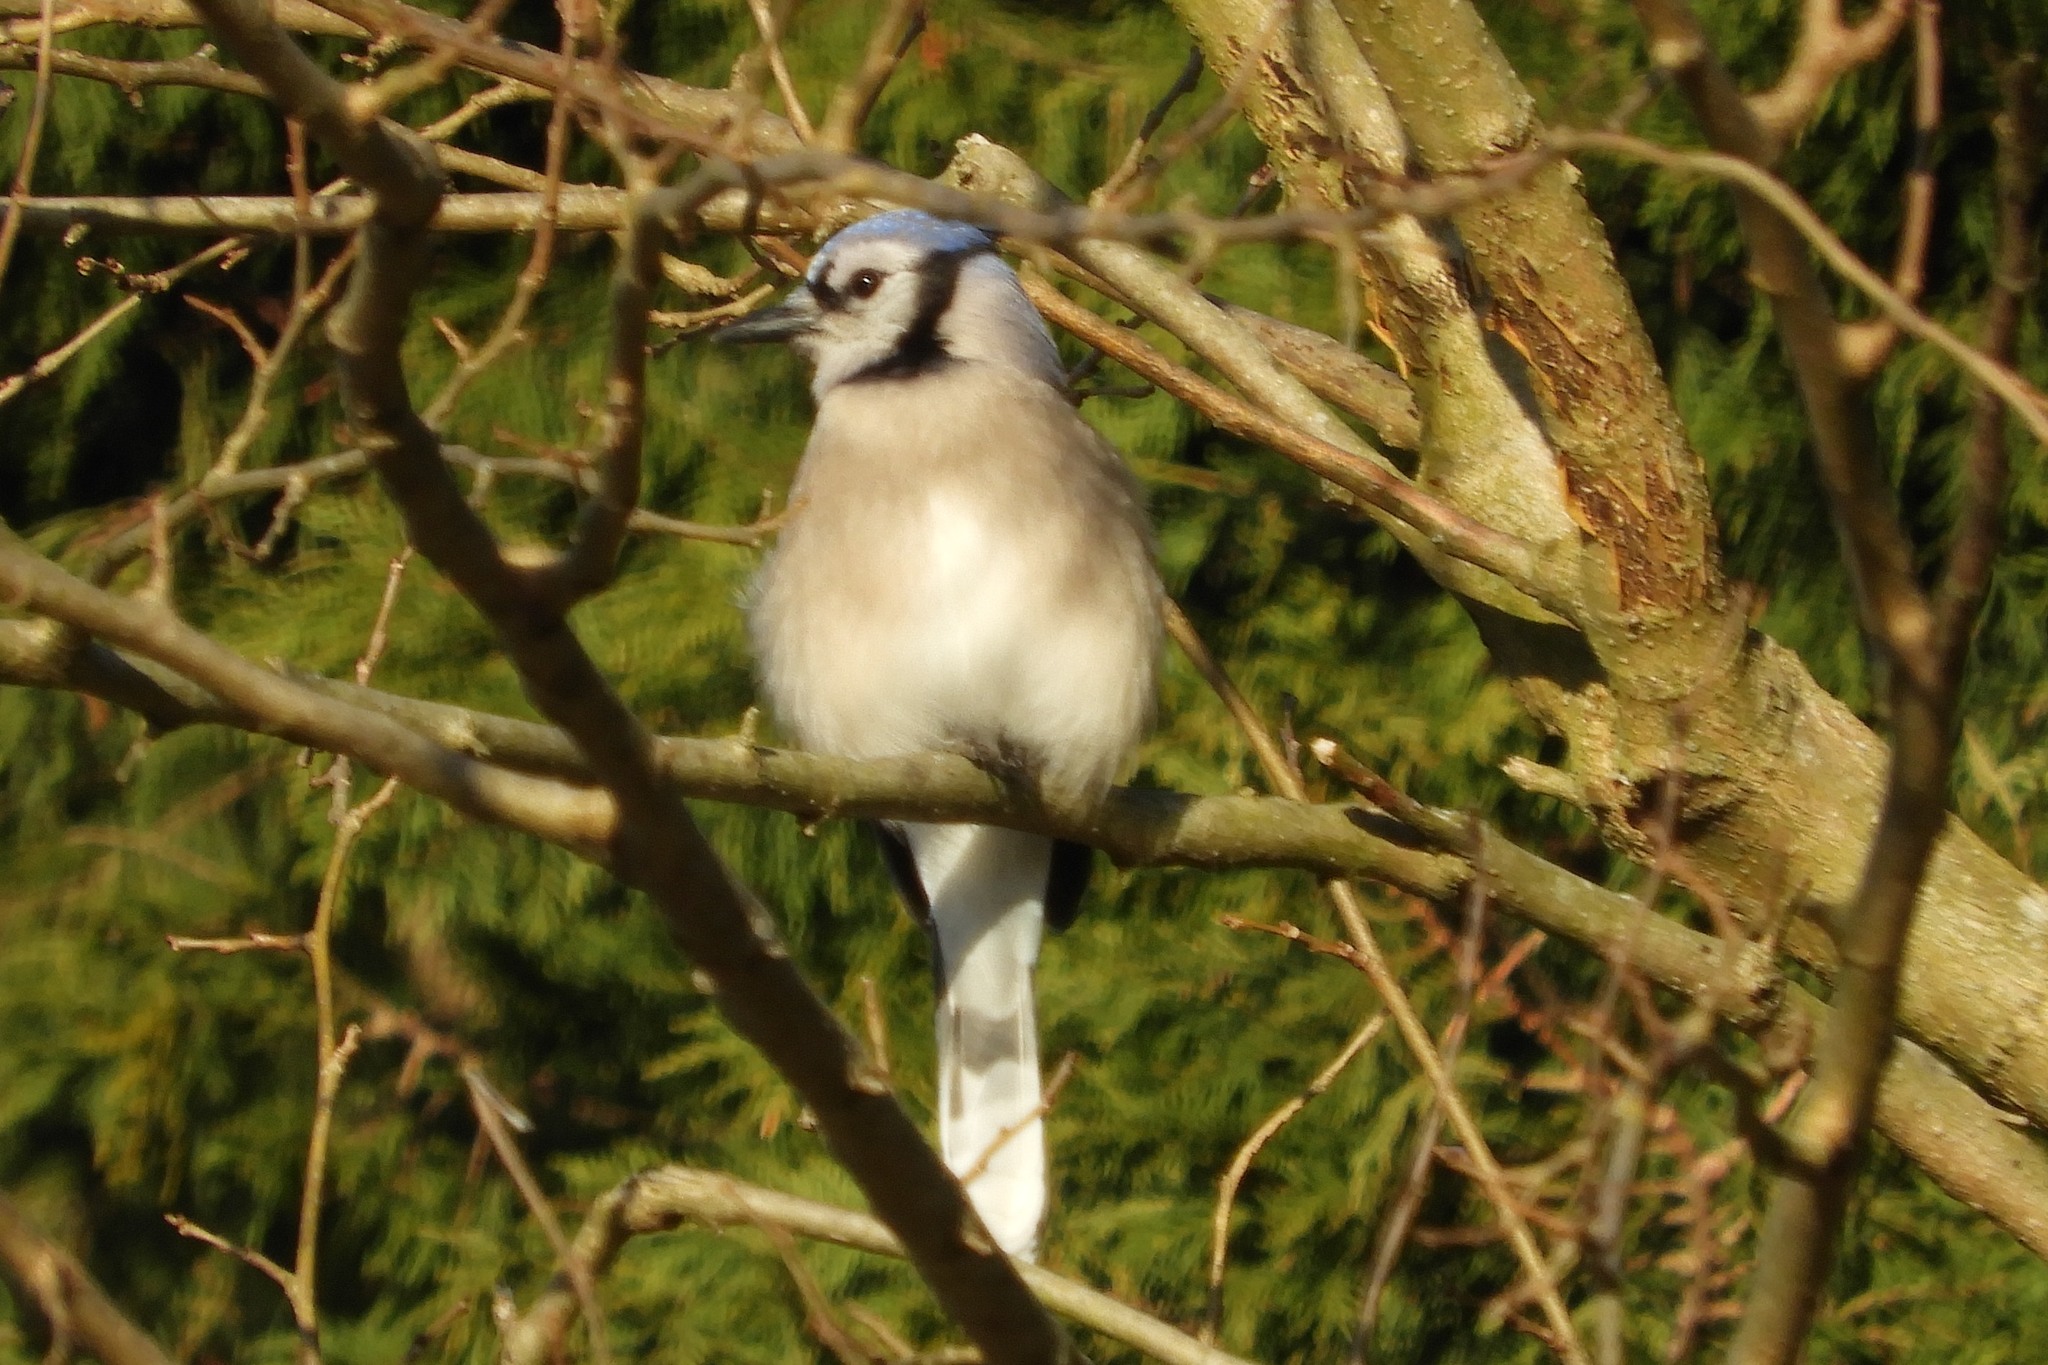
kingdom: Animalia
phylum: Chordata
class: Aves
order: Passeriformes
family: Corvidae
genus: Cyanocitta
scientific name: Cyanocitta cristata
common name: Blue jay
